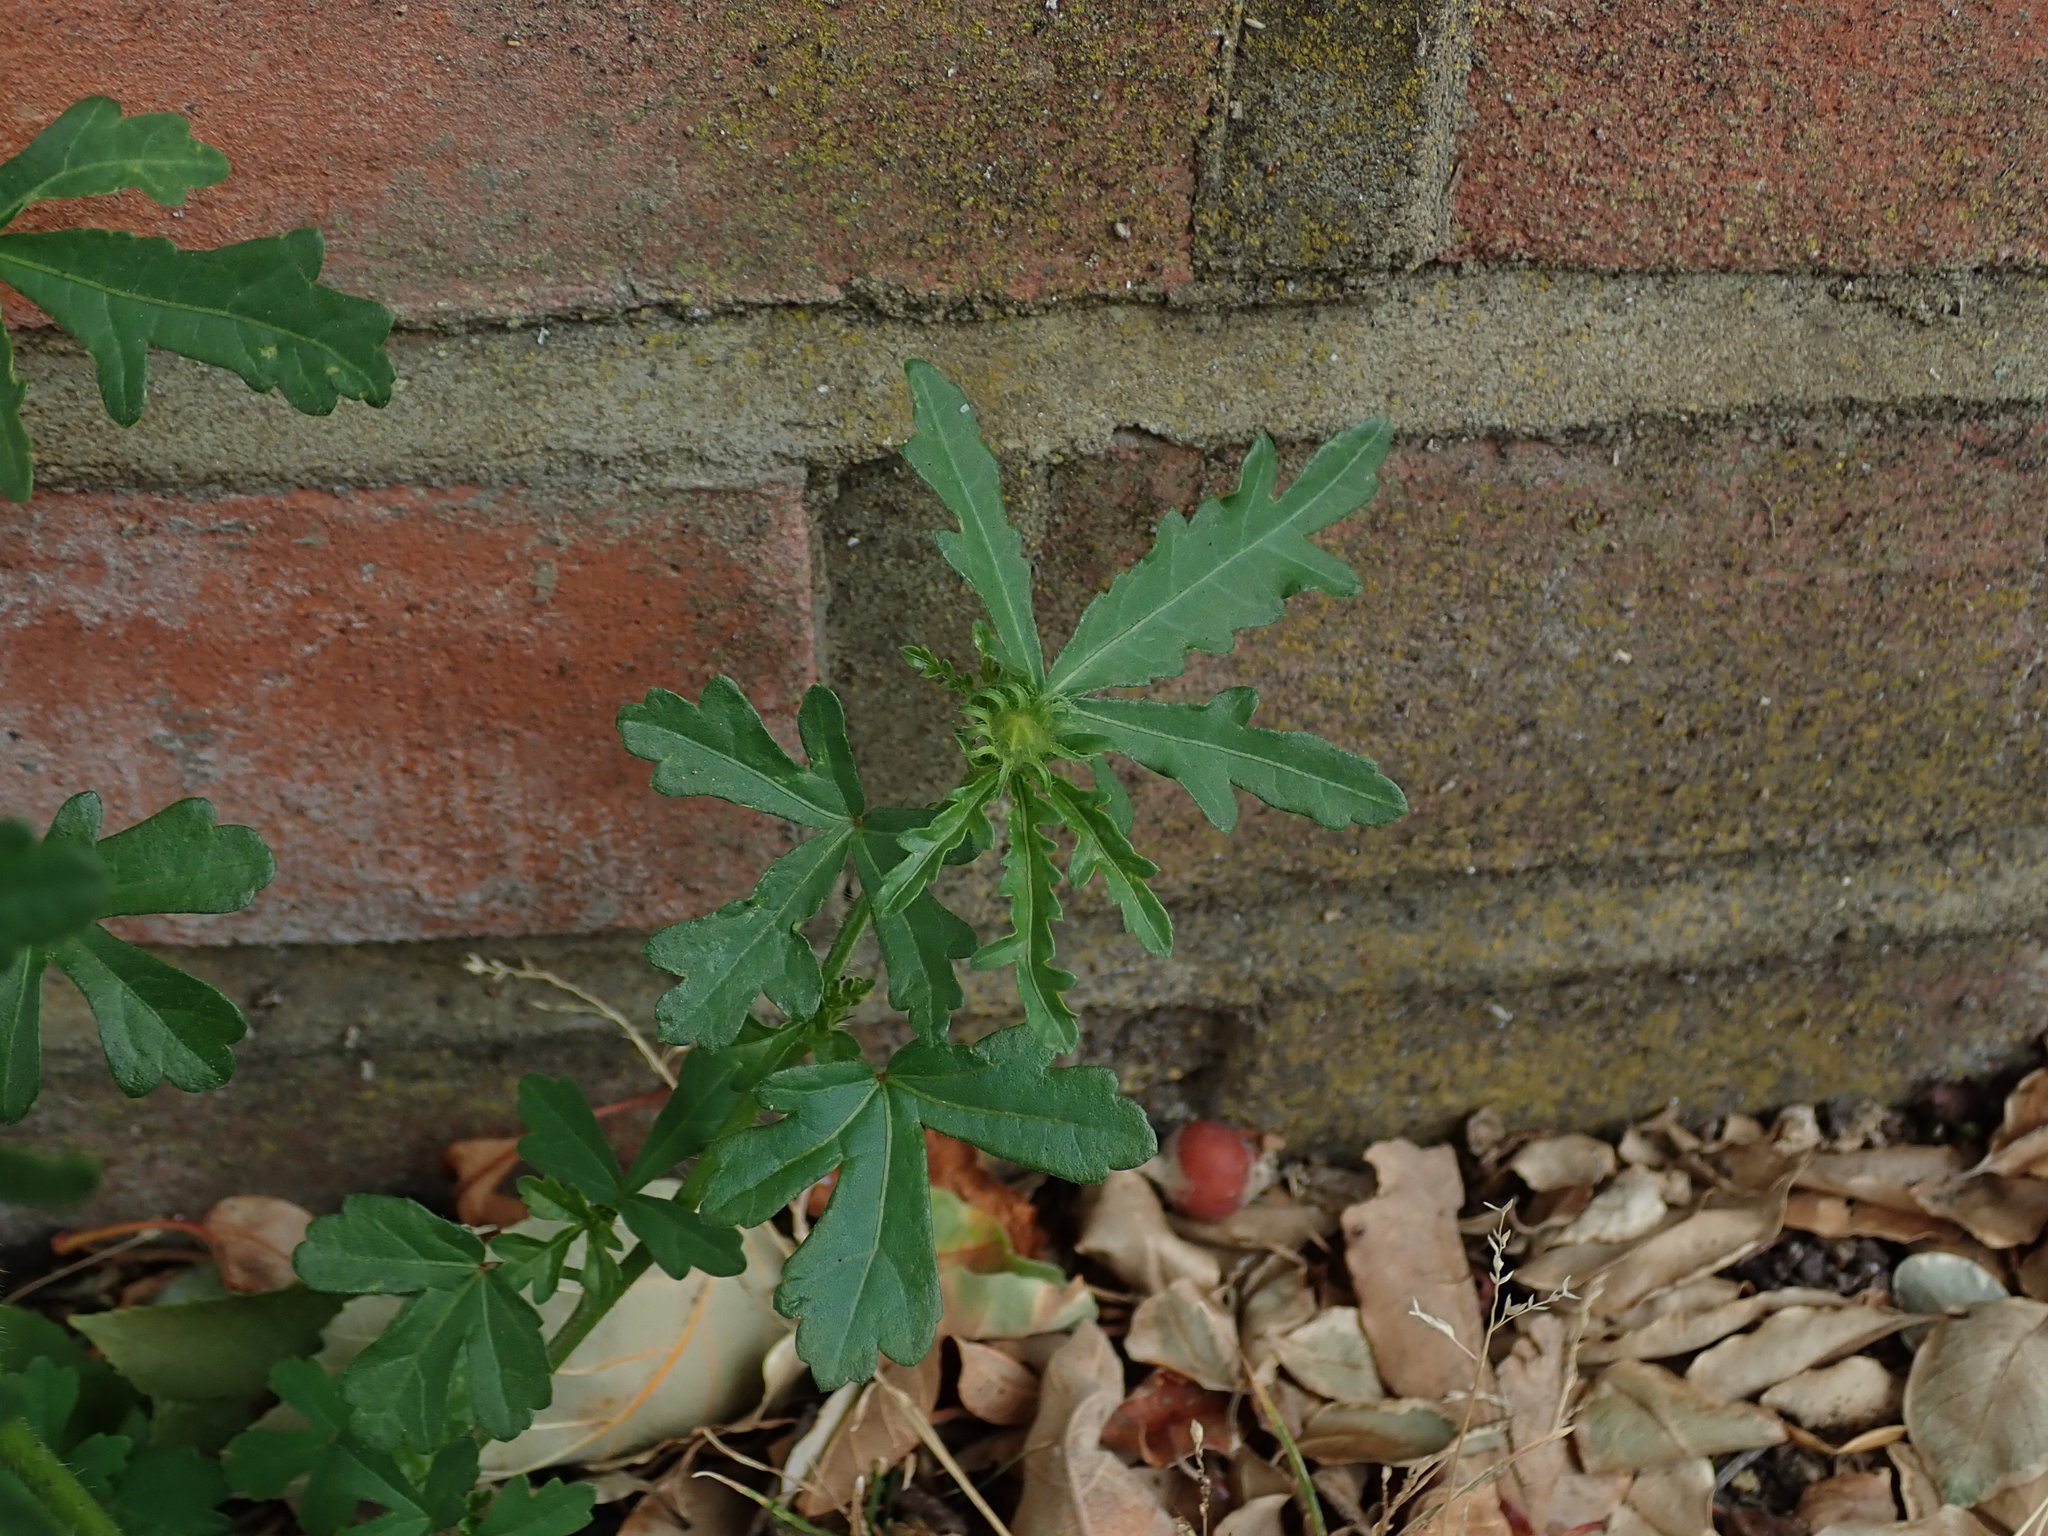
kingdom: Plantae
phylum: Tracheophyta
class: Magnoliopsida
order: Malvales
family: Malvaceae
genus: Hibiscus
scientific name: Hibiscus trionum
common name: Bladder ketmia
